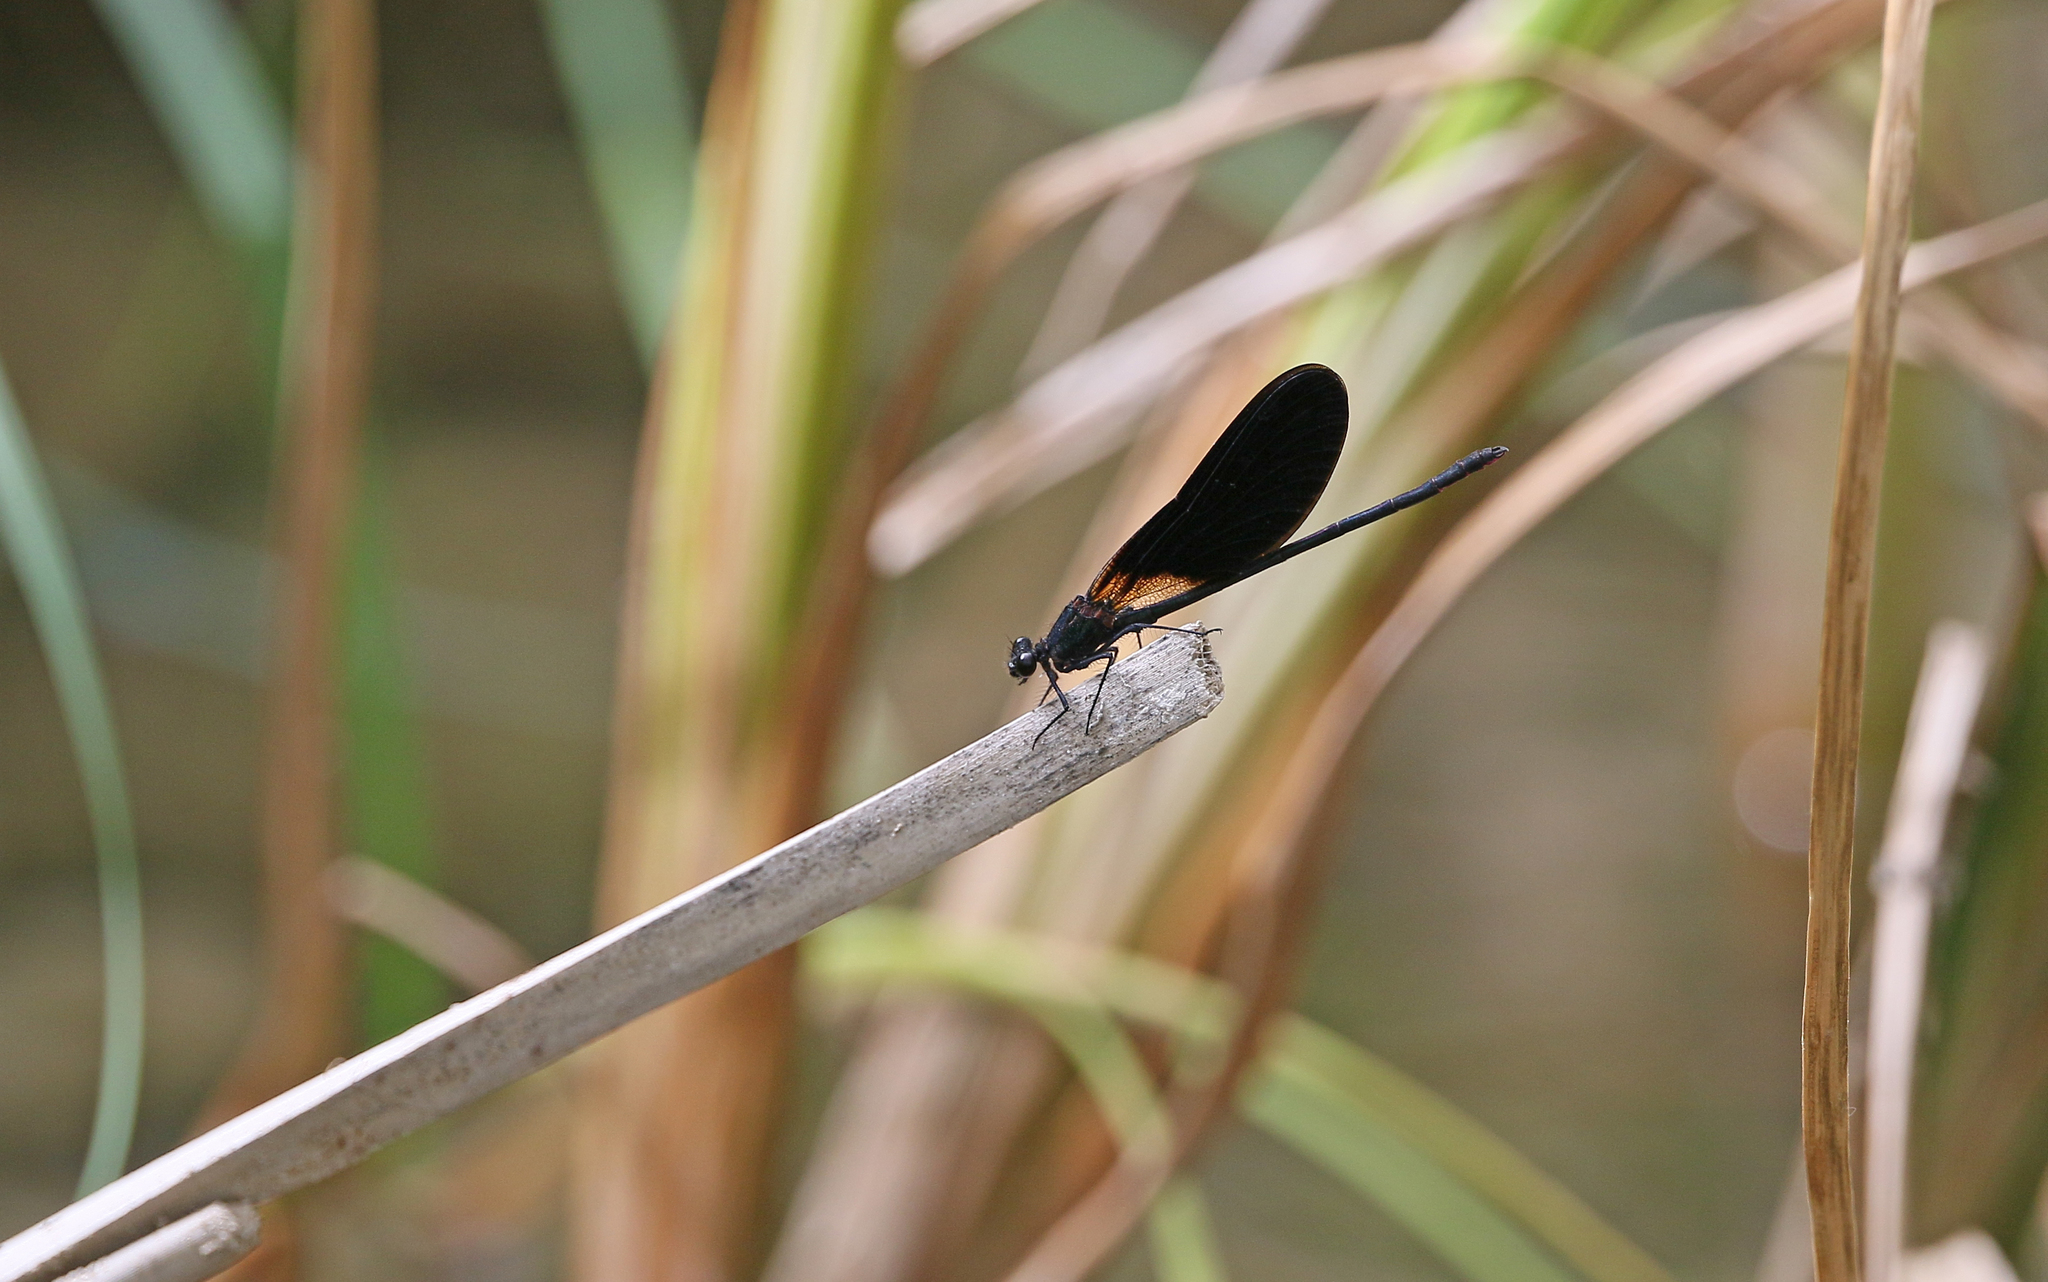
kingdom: Animalia
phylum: Arthropoda
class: Insecta
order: Odonata
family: Calopterygidae
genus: Calopteryx
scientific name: Calopteryx haemorrhoidalis
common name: Copper demoiselle
